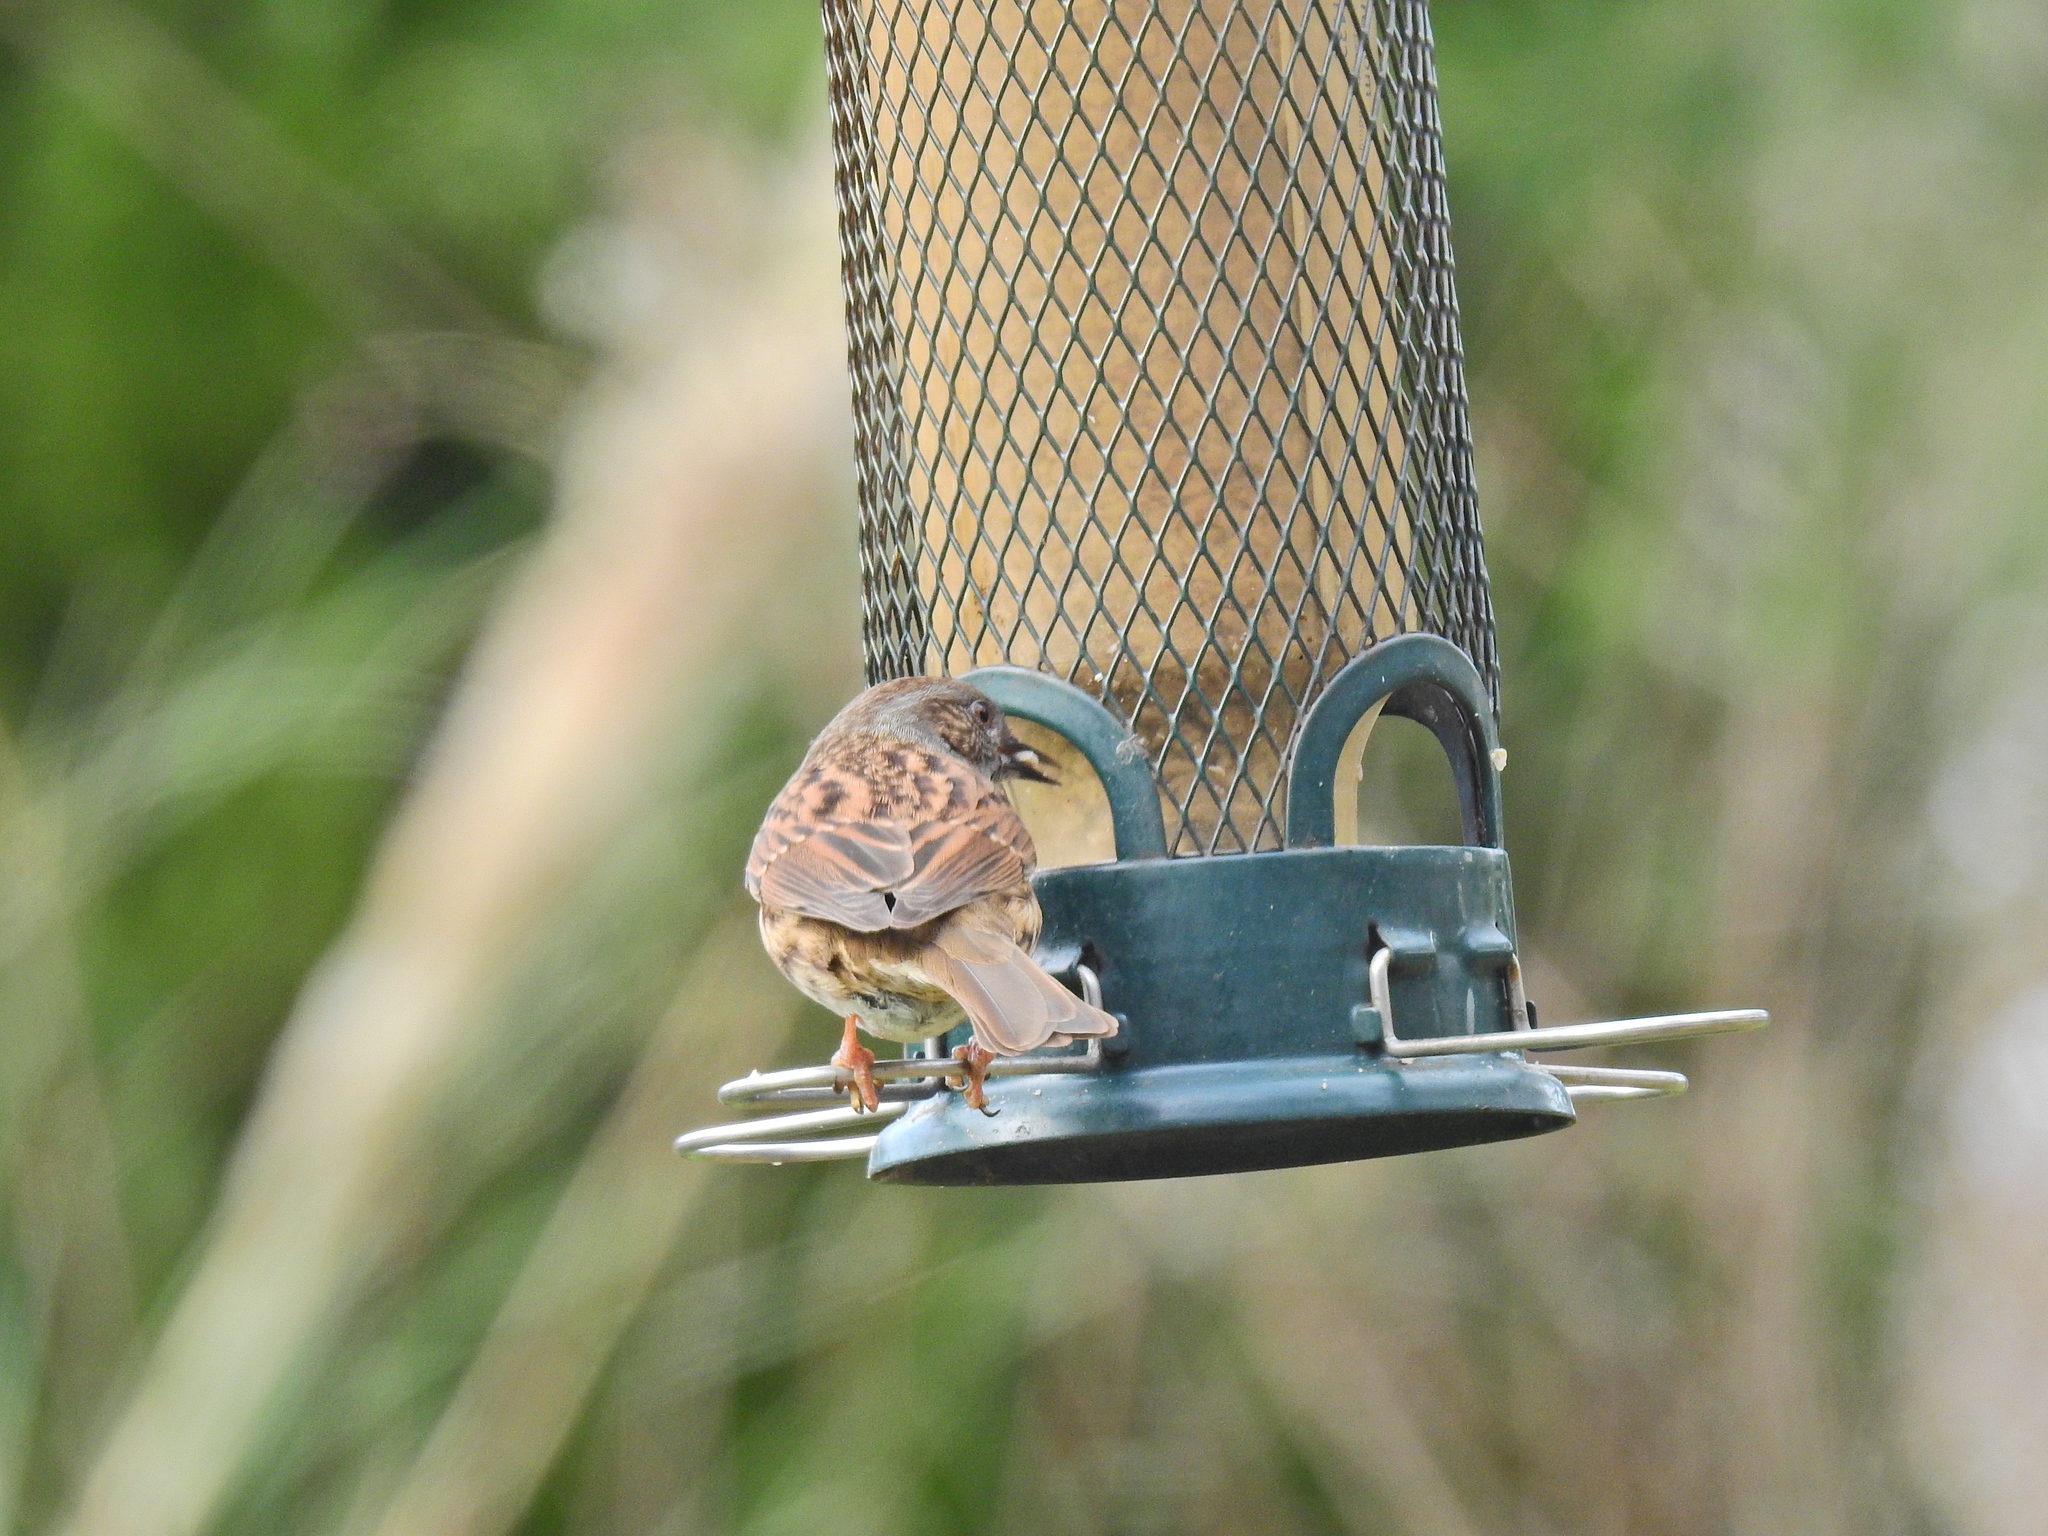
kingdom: Animalia
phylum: Chordata
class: Aves
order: Passeriformes
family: Prunellidae
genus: Prunella
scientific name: Prunella modularis
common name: Dunnock
